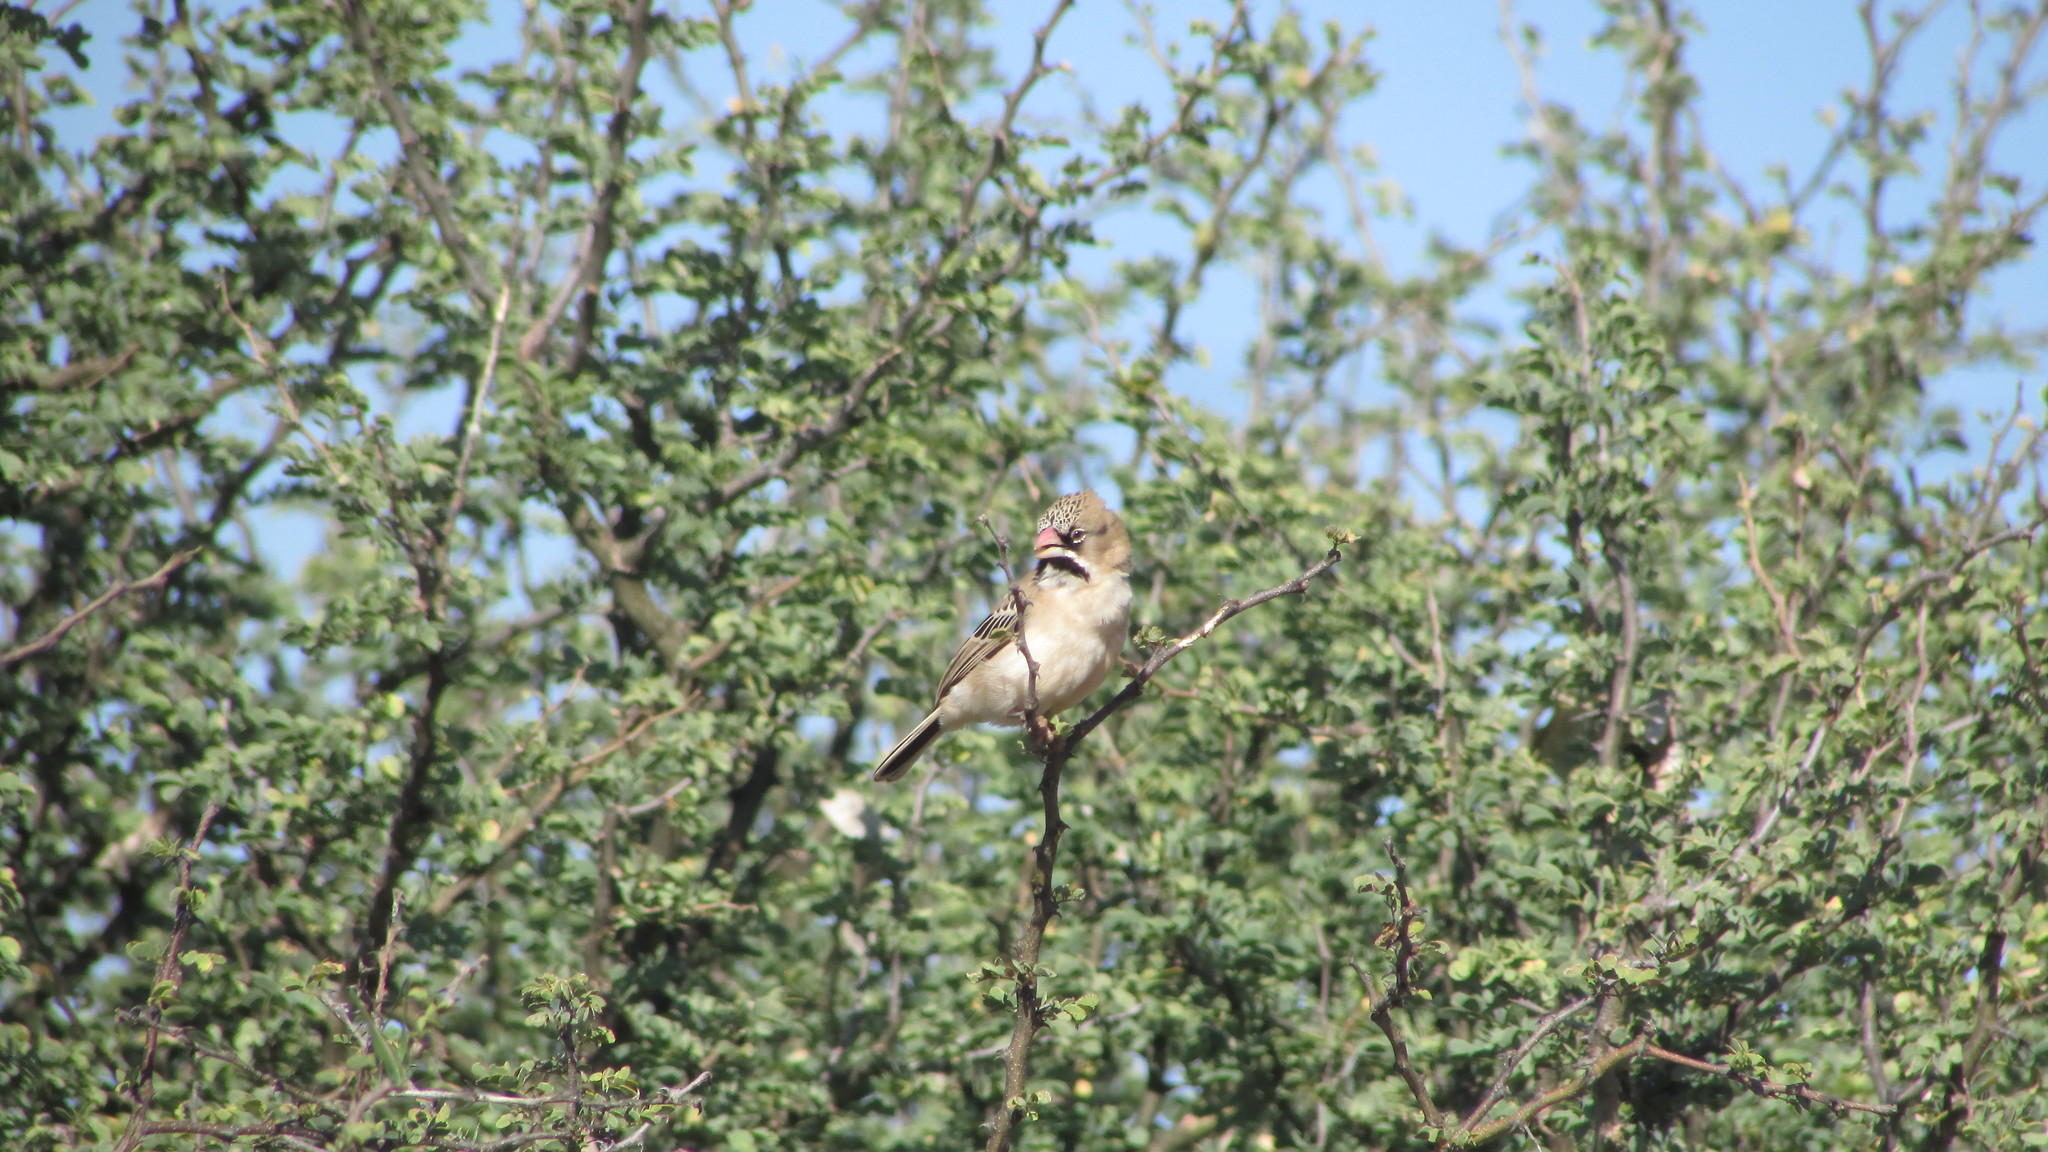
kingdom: Animalia
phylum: Chordata
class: Aves
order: Passeriformes
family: Ploceidae
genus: Sporopipes
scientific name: Sporopipes squamifrons
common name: Scaly-feathered weaver
